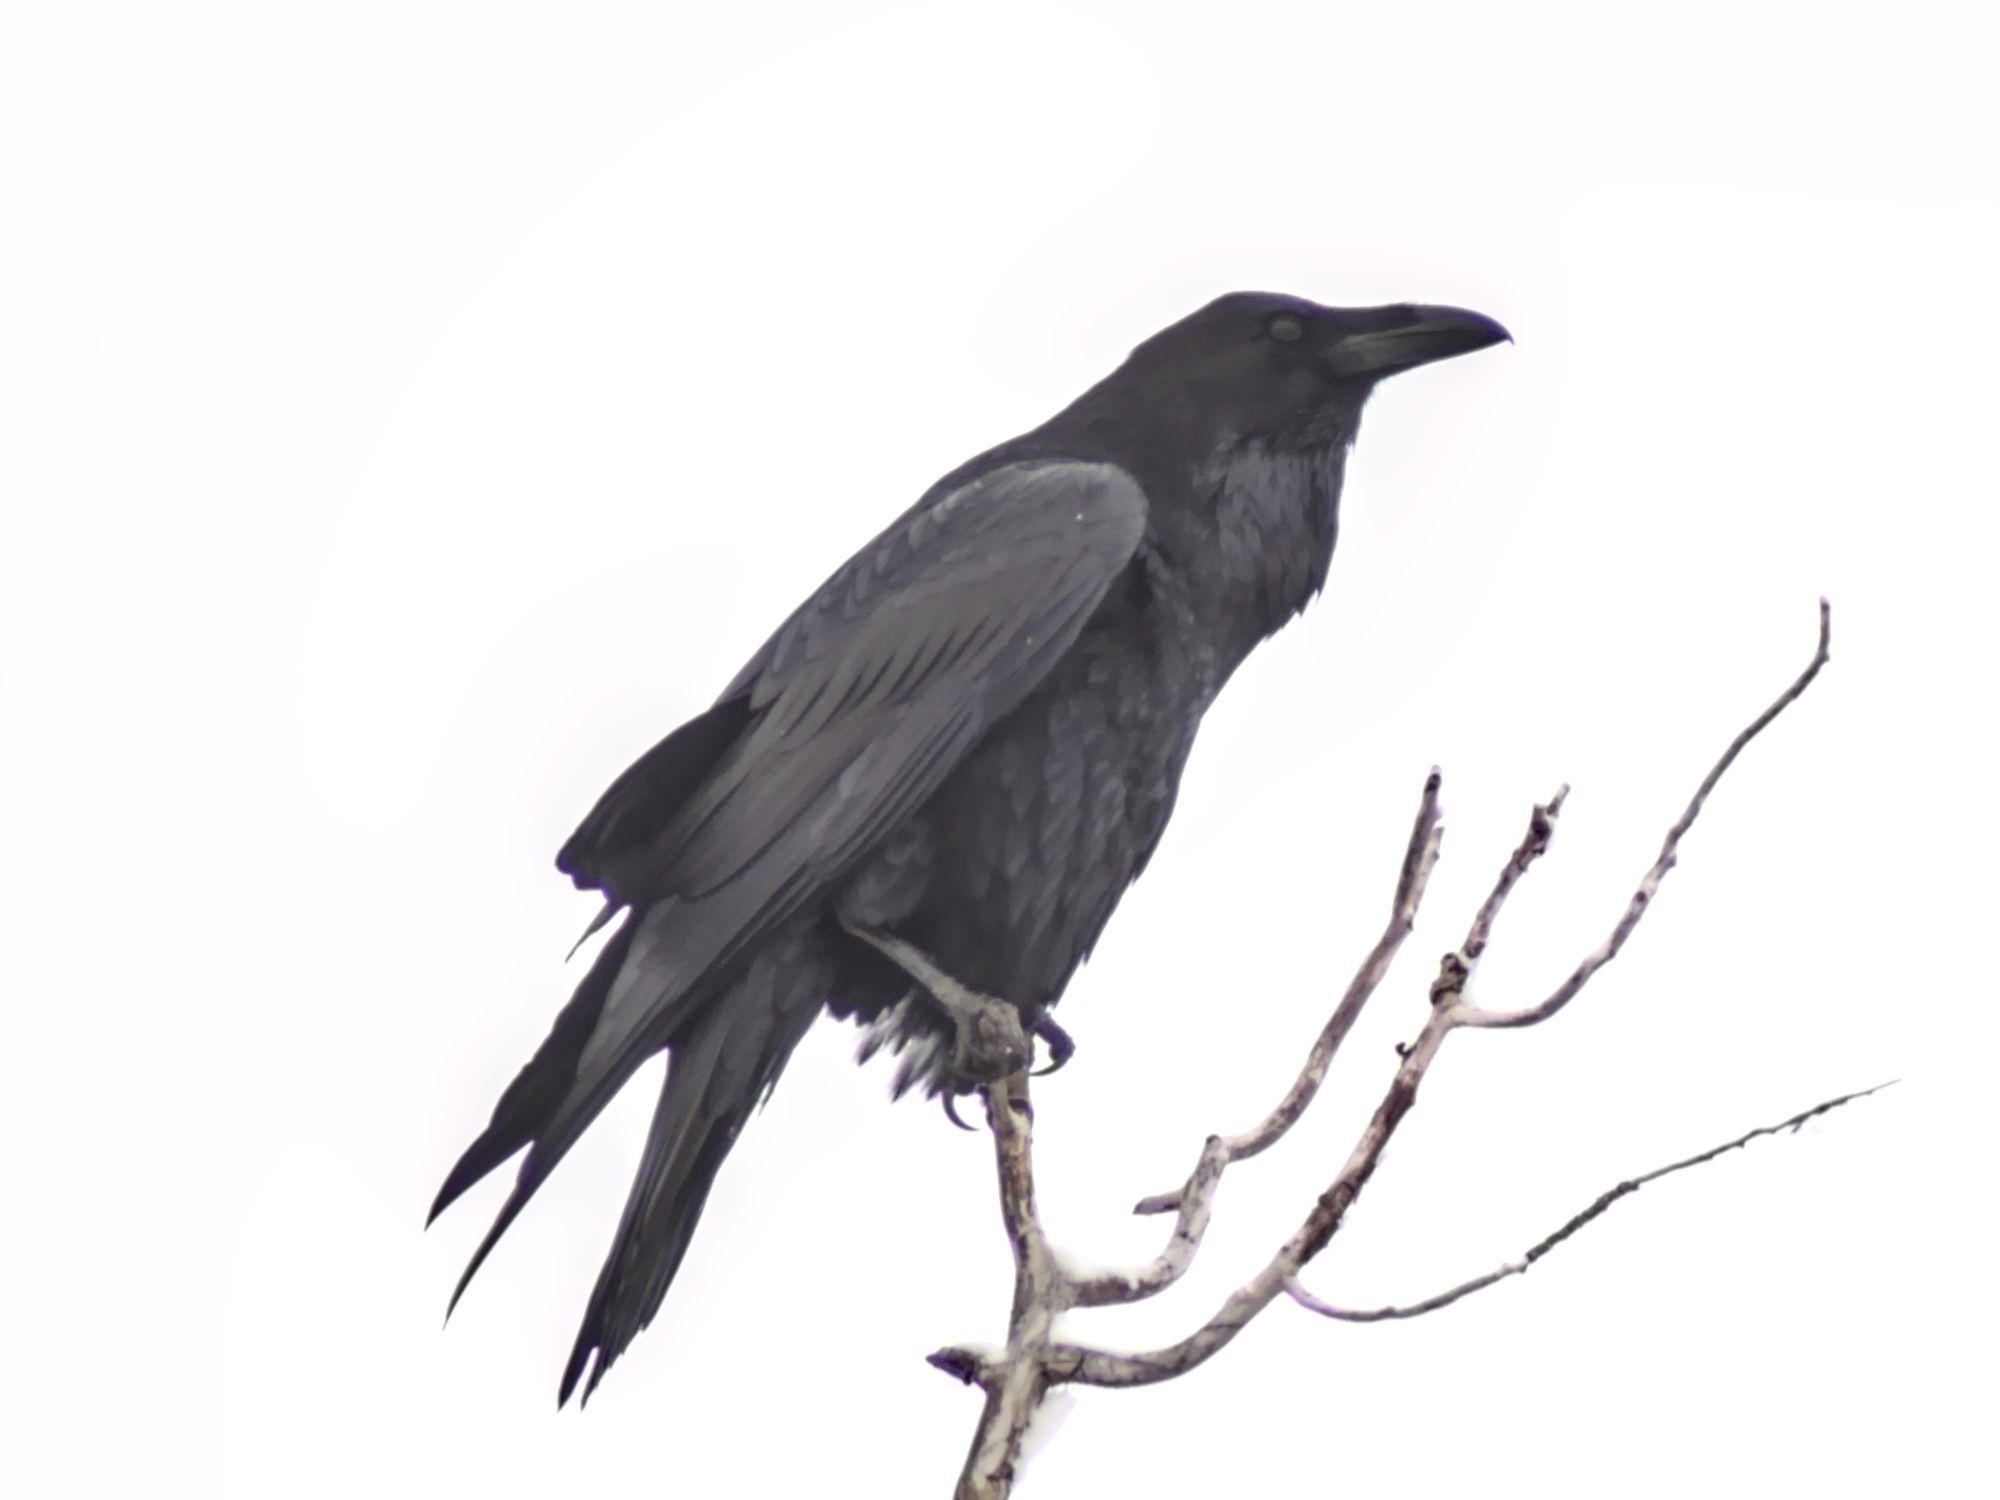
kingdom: Animalia
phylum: Chordata
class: Aves
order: Passeriformes
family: Corvidae
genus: Corvus
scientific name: Corvus corax
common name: Common raven
